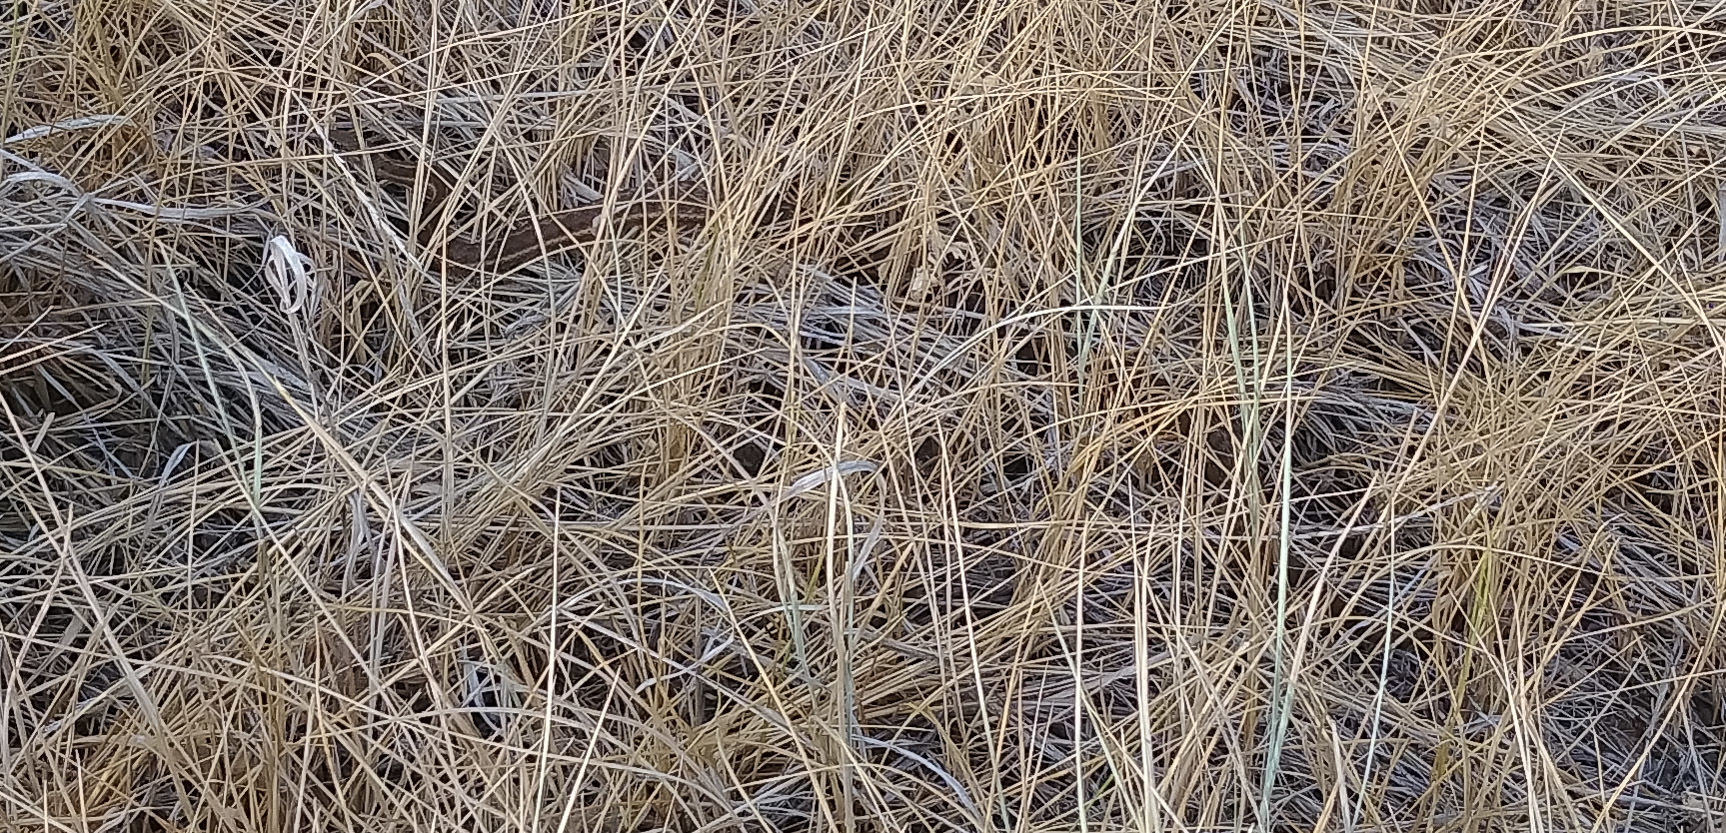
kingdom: Animalia
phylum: Chordata
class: Squamata
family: Colubridae
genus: Thamnophis
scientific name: Thamnophis elegans
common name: Western terrestrial garter snake
